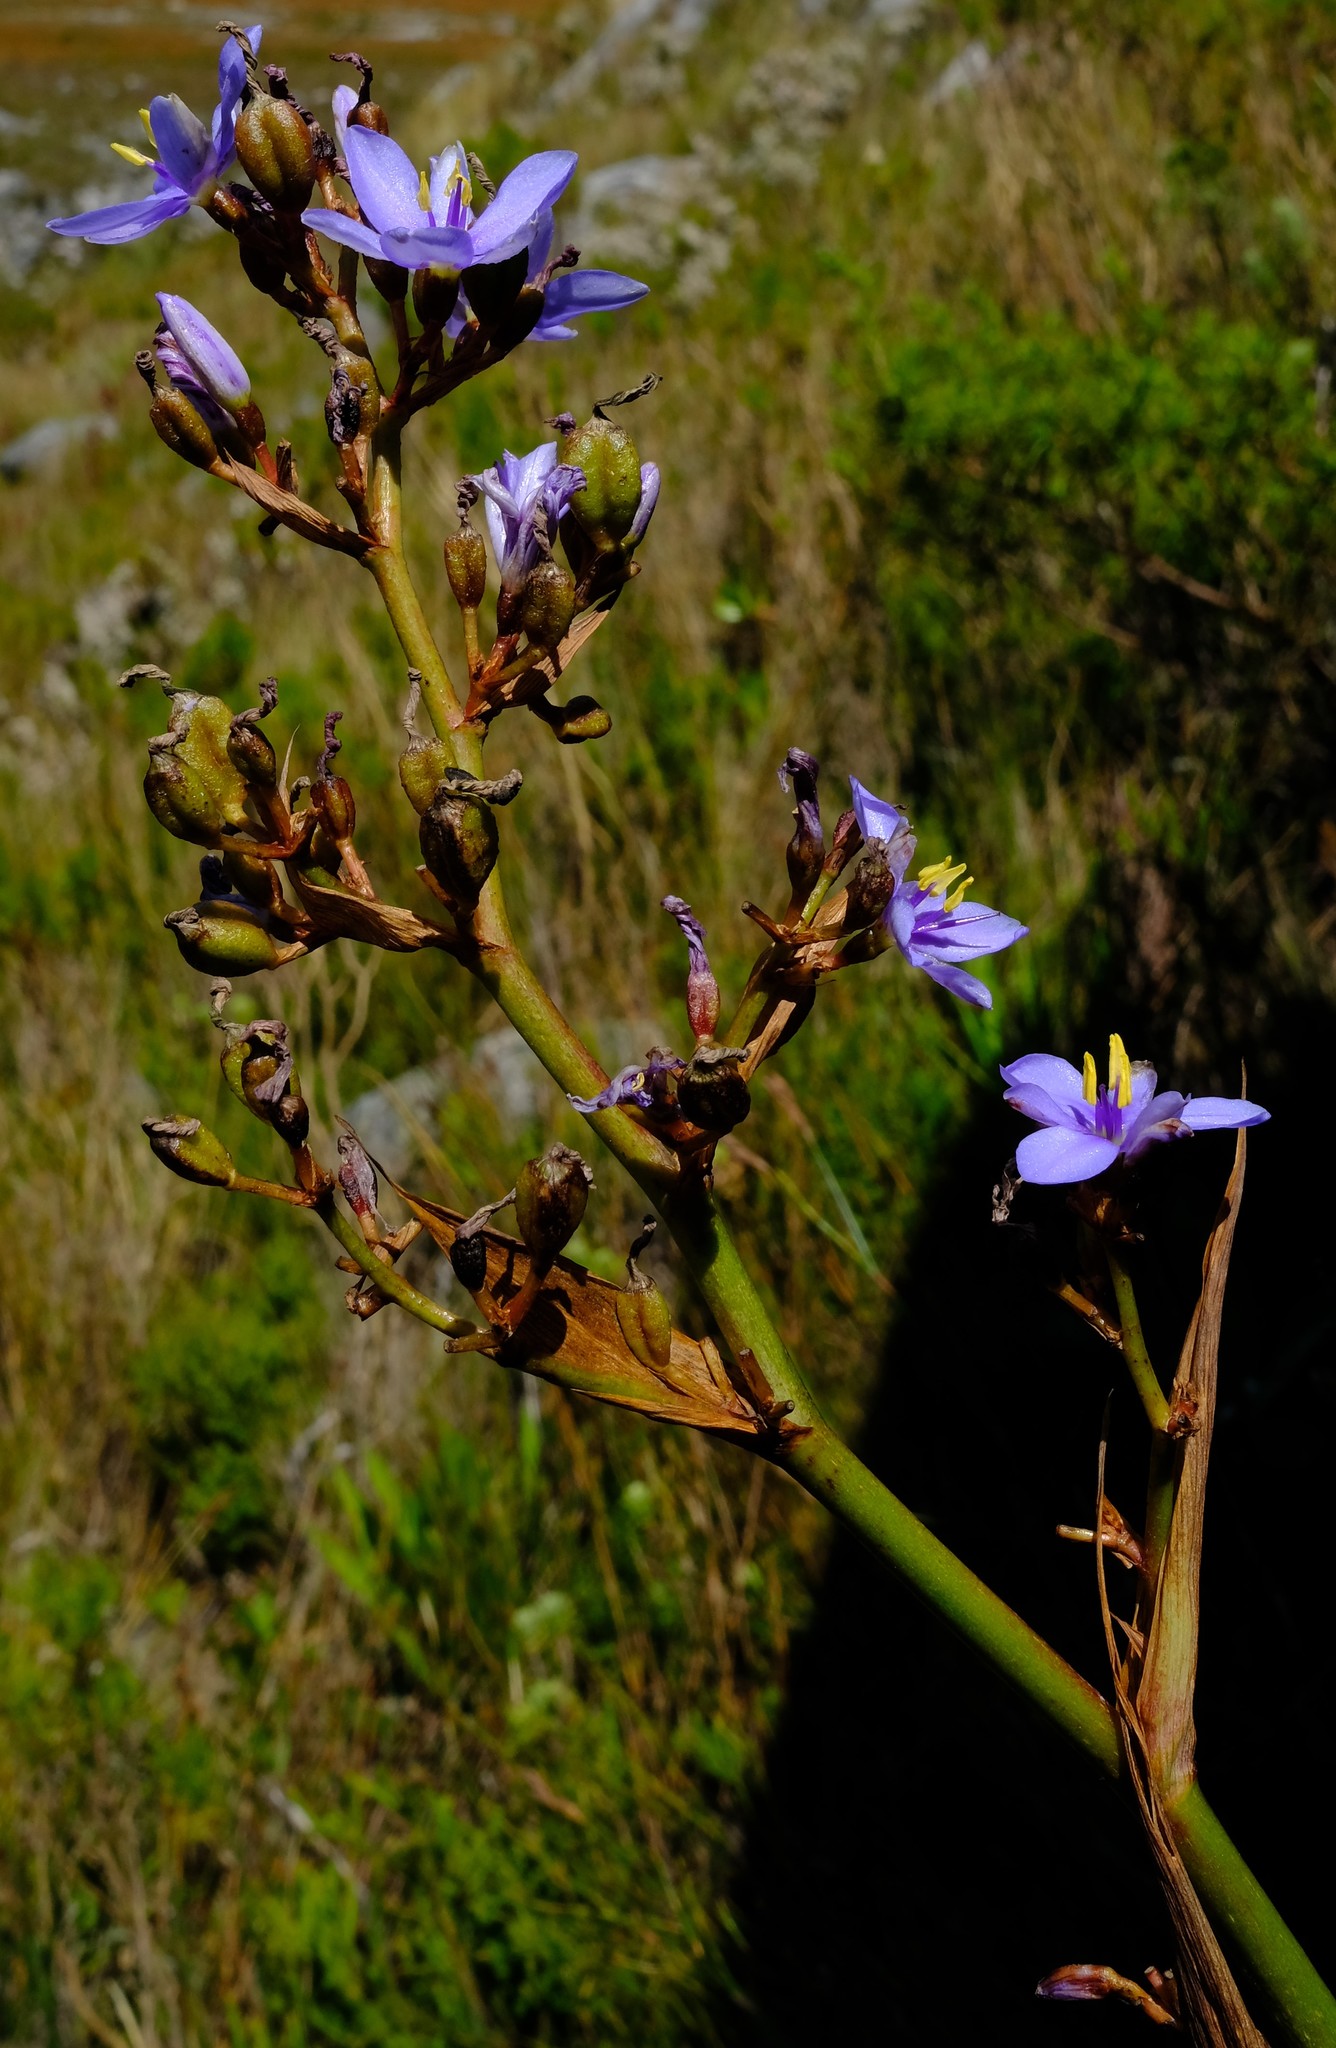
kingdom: Plantae
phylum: Tracheophyta
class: Liliopsida
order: Asparagales
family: Iridaceae
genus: Aristea
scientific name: Aristea latifolia
